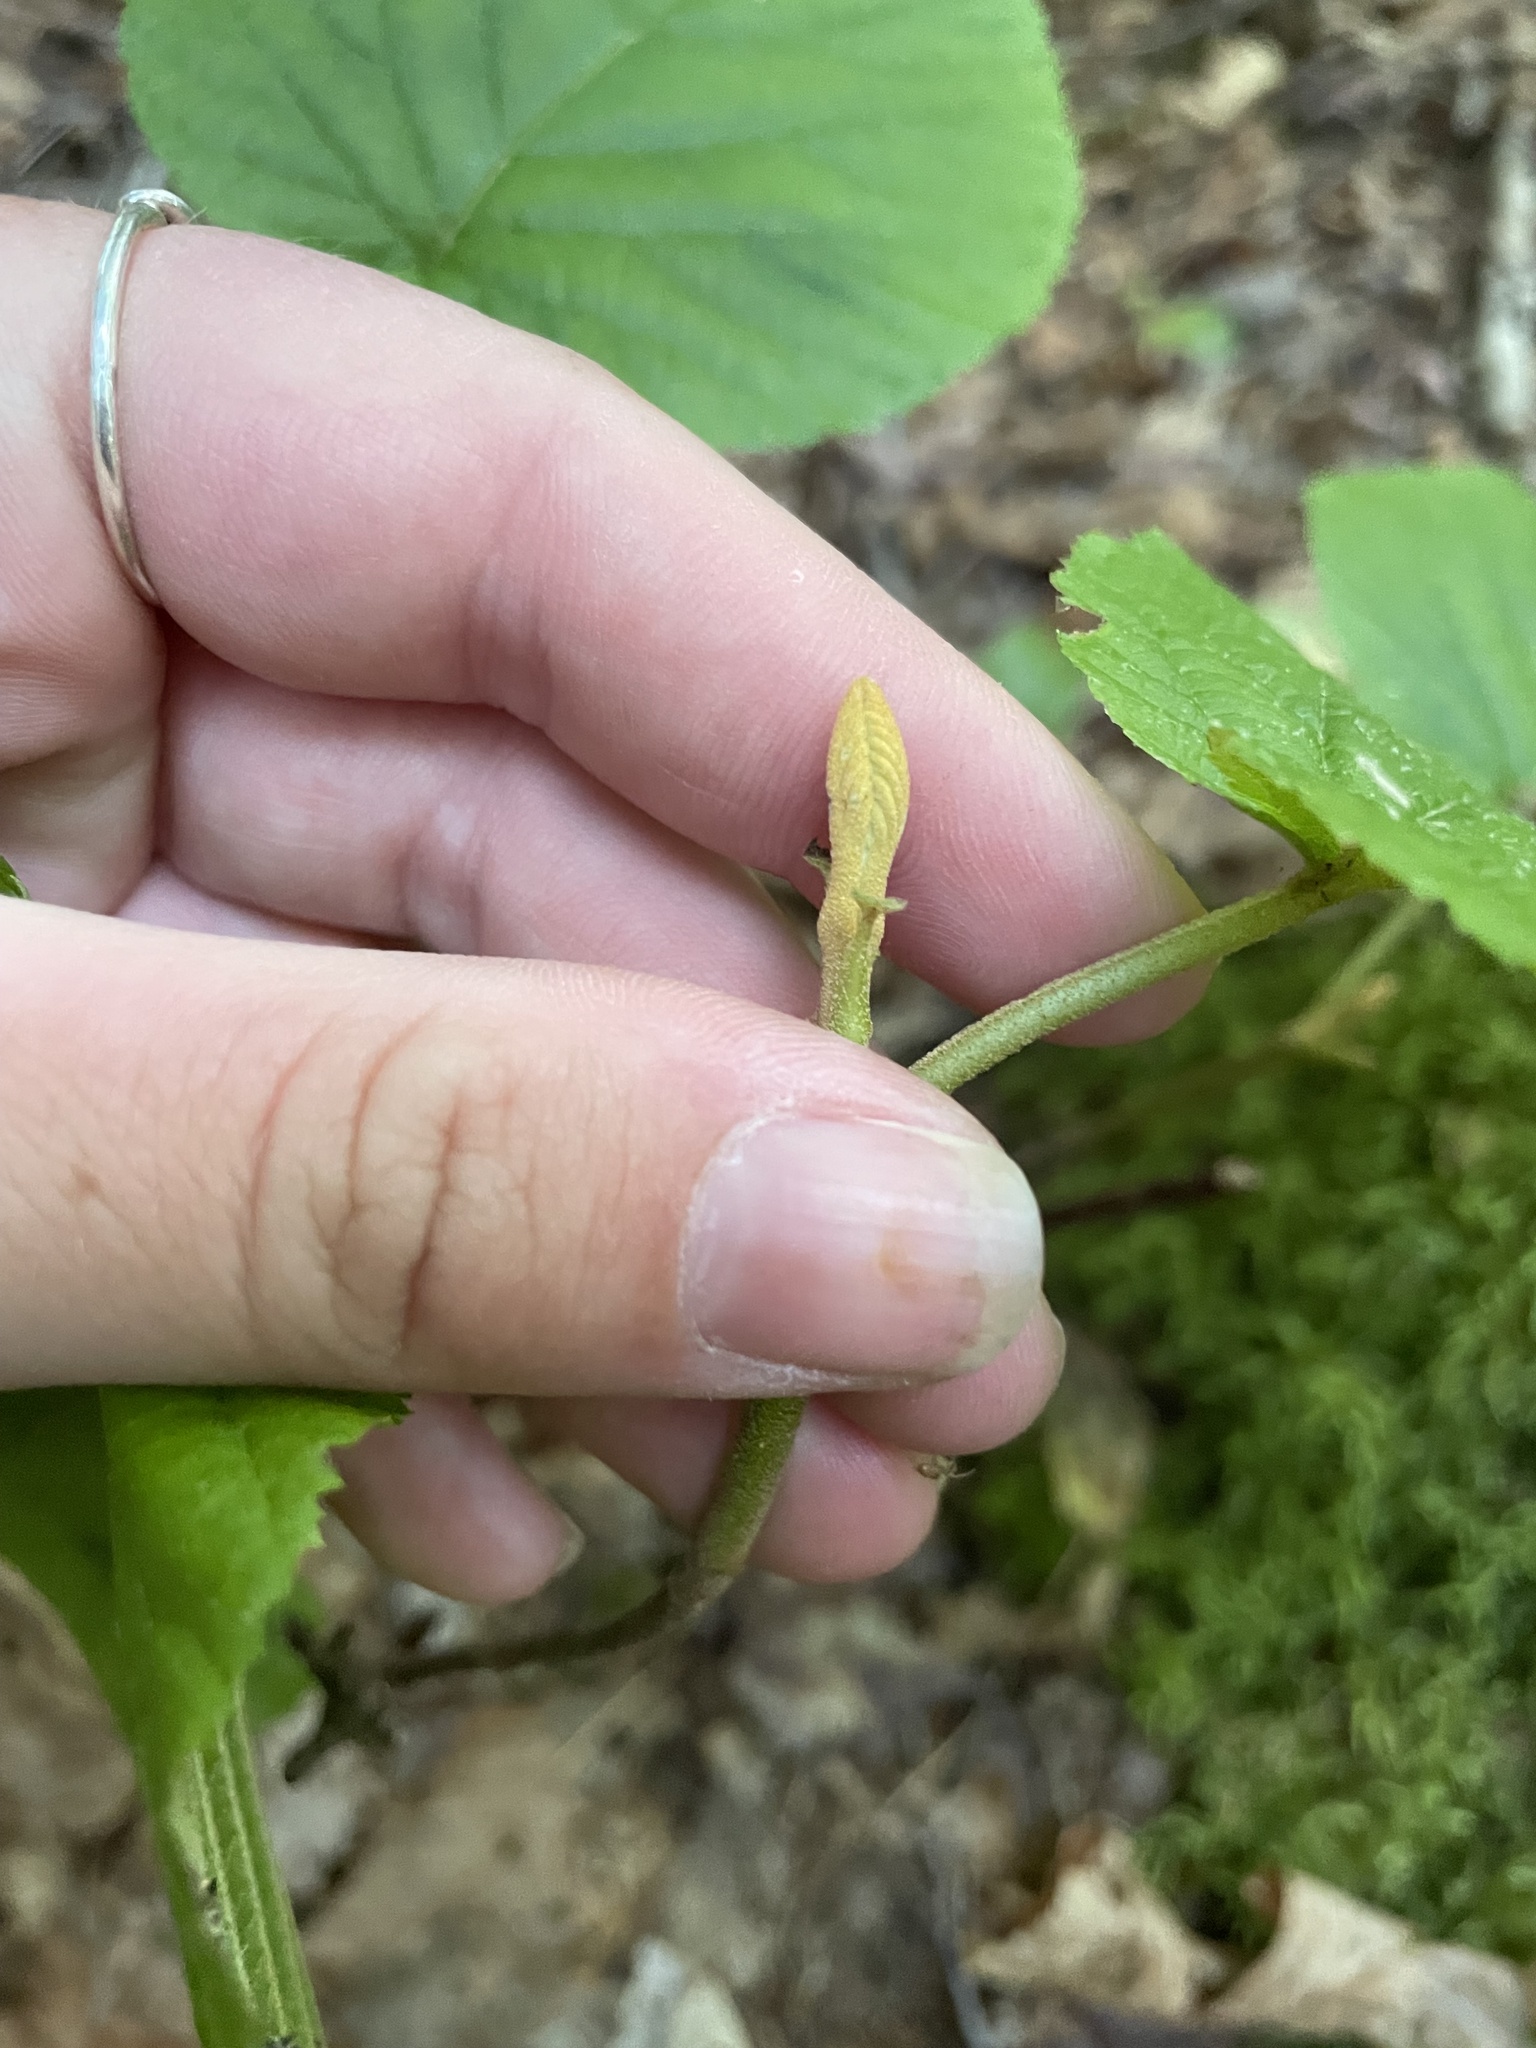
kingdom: Plantae
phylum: Tracheophyta
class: Magnoliopsida
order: Dipsacales
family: Viburnaceae
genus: Viburnum
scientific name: Viburnum lantanoides
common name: Hobblebush
